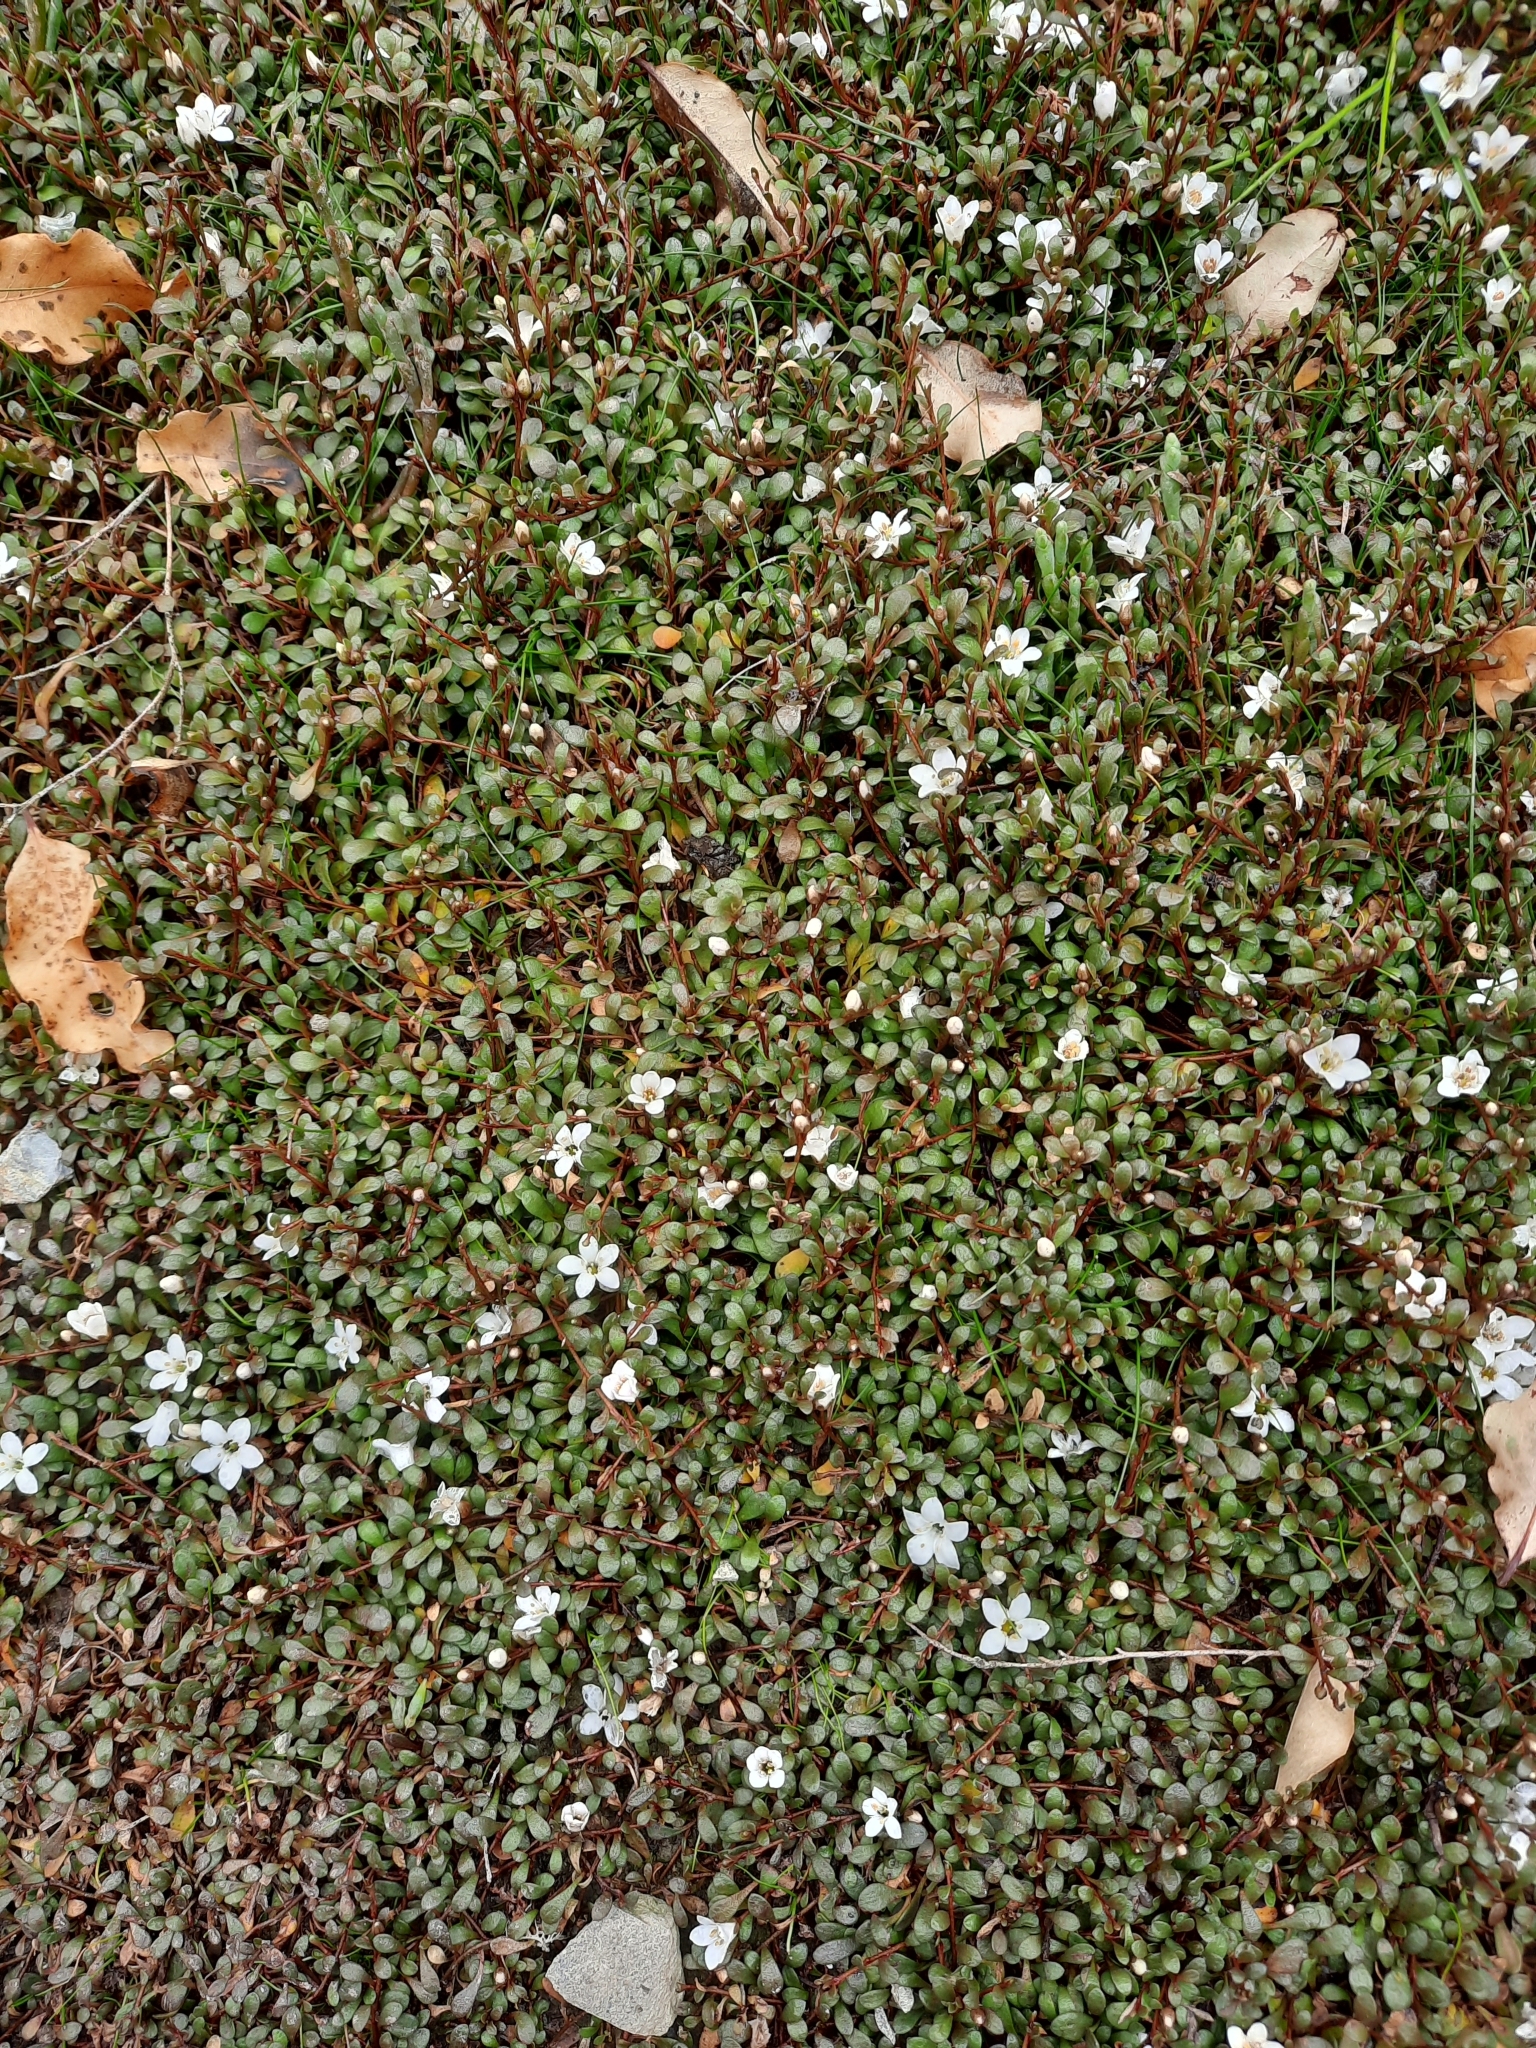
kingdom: Plantae
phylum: Tracheophyta
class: Magnoliopsida
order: Ericales
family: Primulaceae
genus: Samolus
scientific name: Samolus repens
